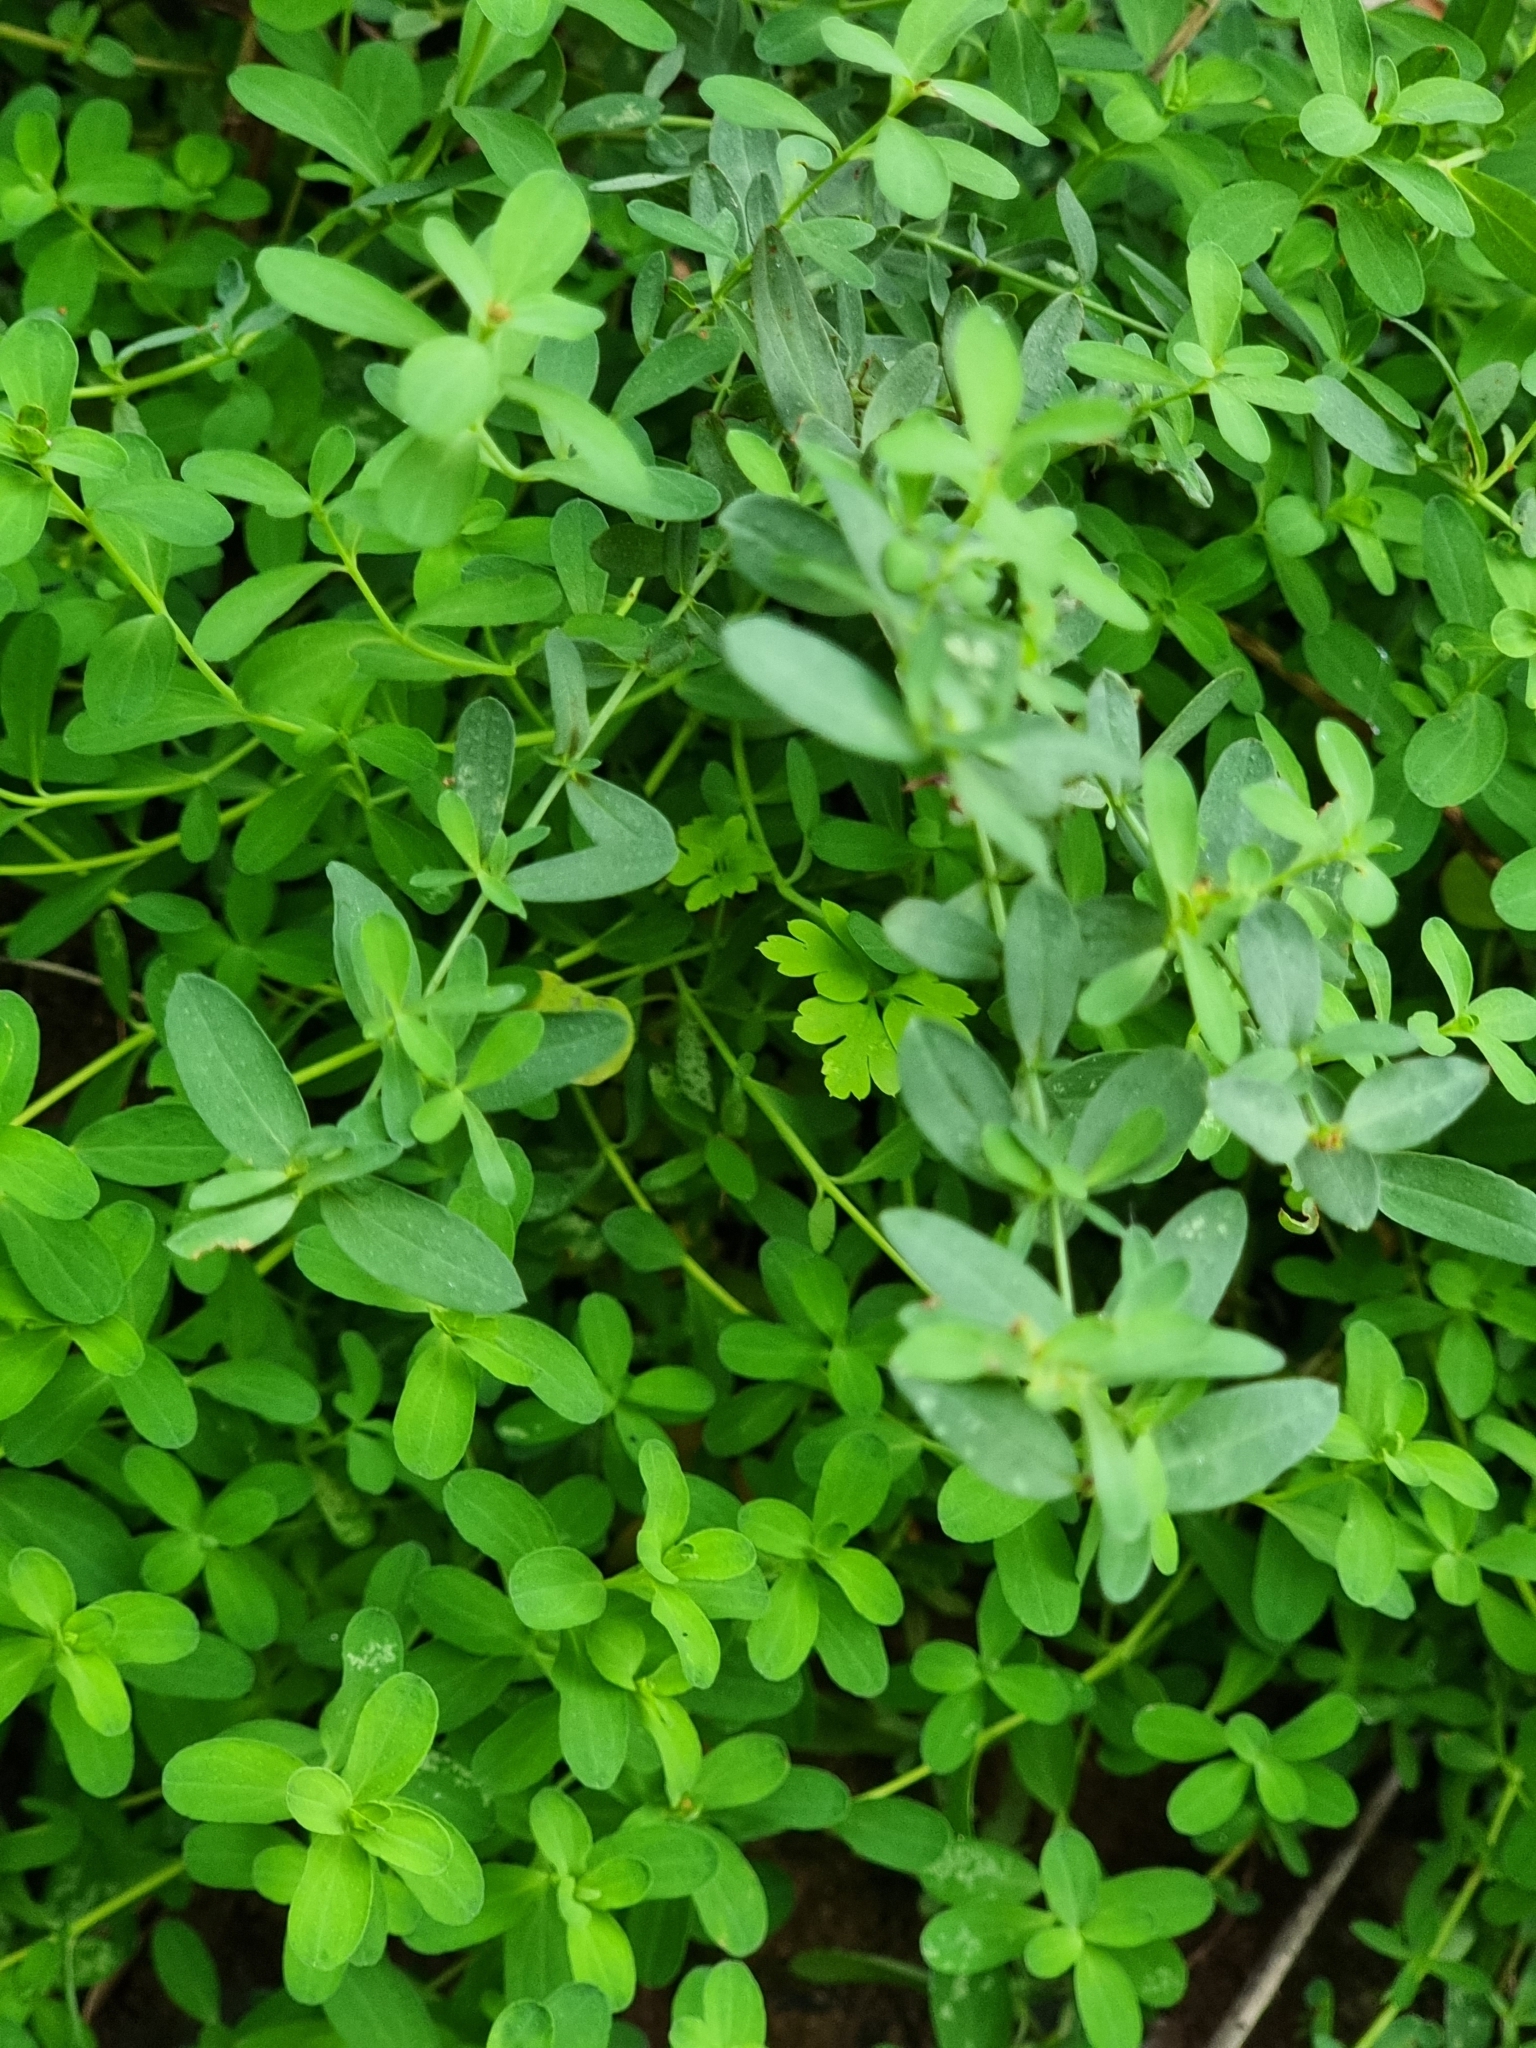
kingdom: Plantae
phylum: Tracheophyta
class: Magnoliopsida
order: Malpighiales
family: Hypericaceae
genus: Hypericum
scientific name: Hypericum humifusum
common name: Trailing st. john's-wort
